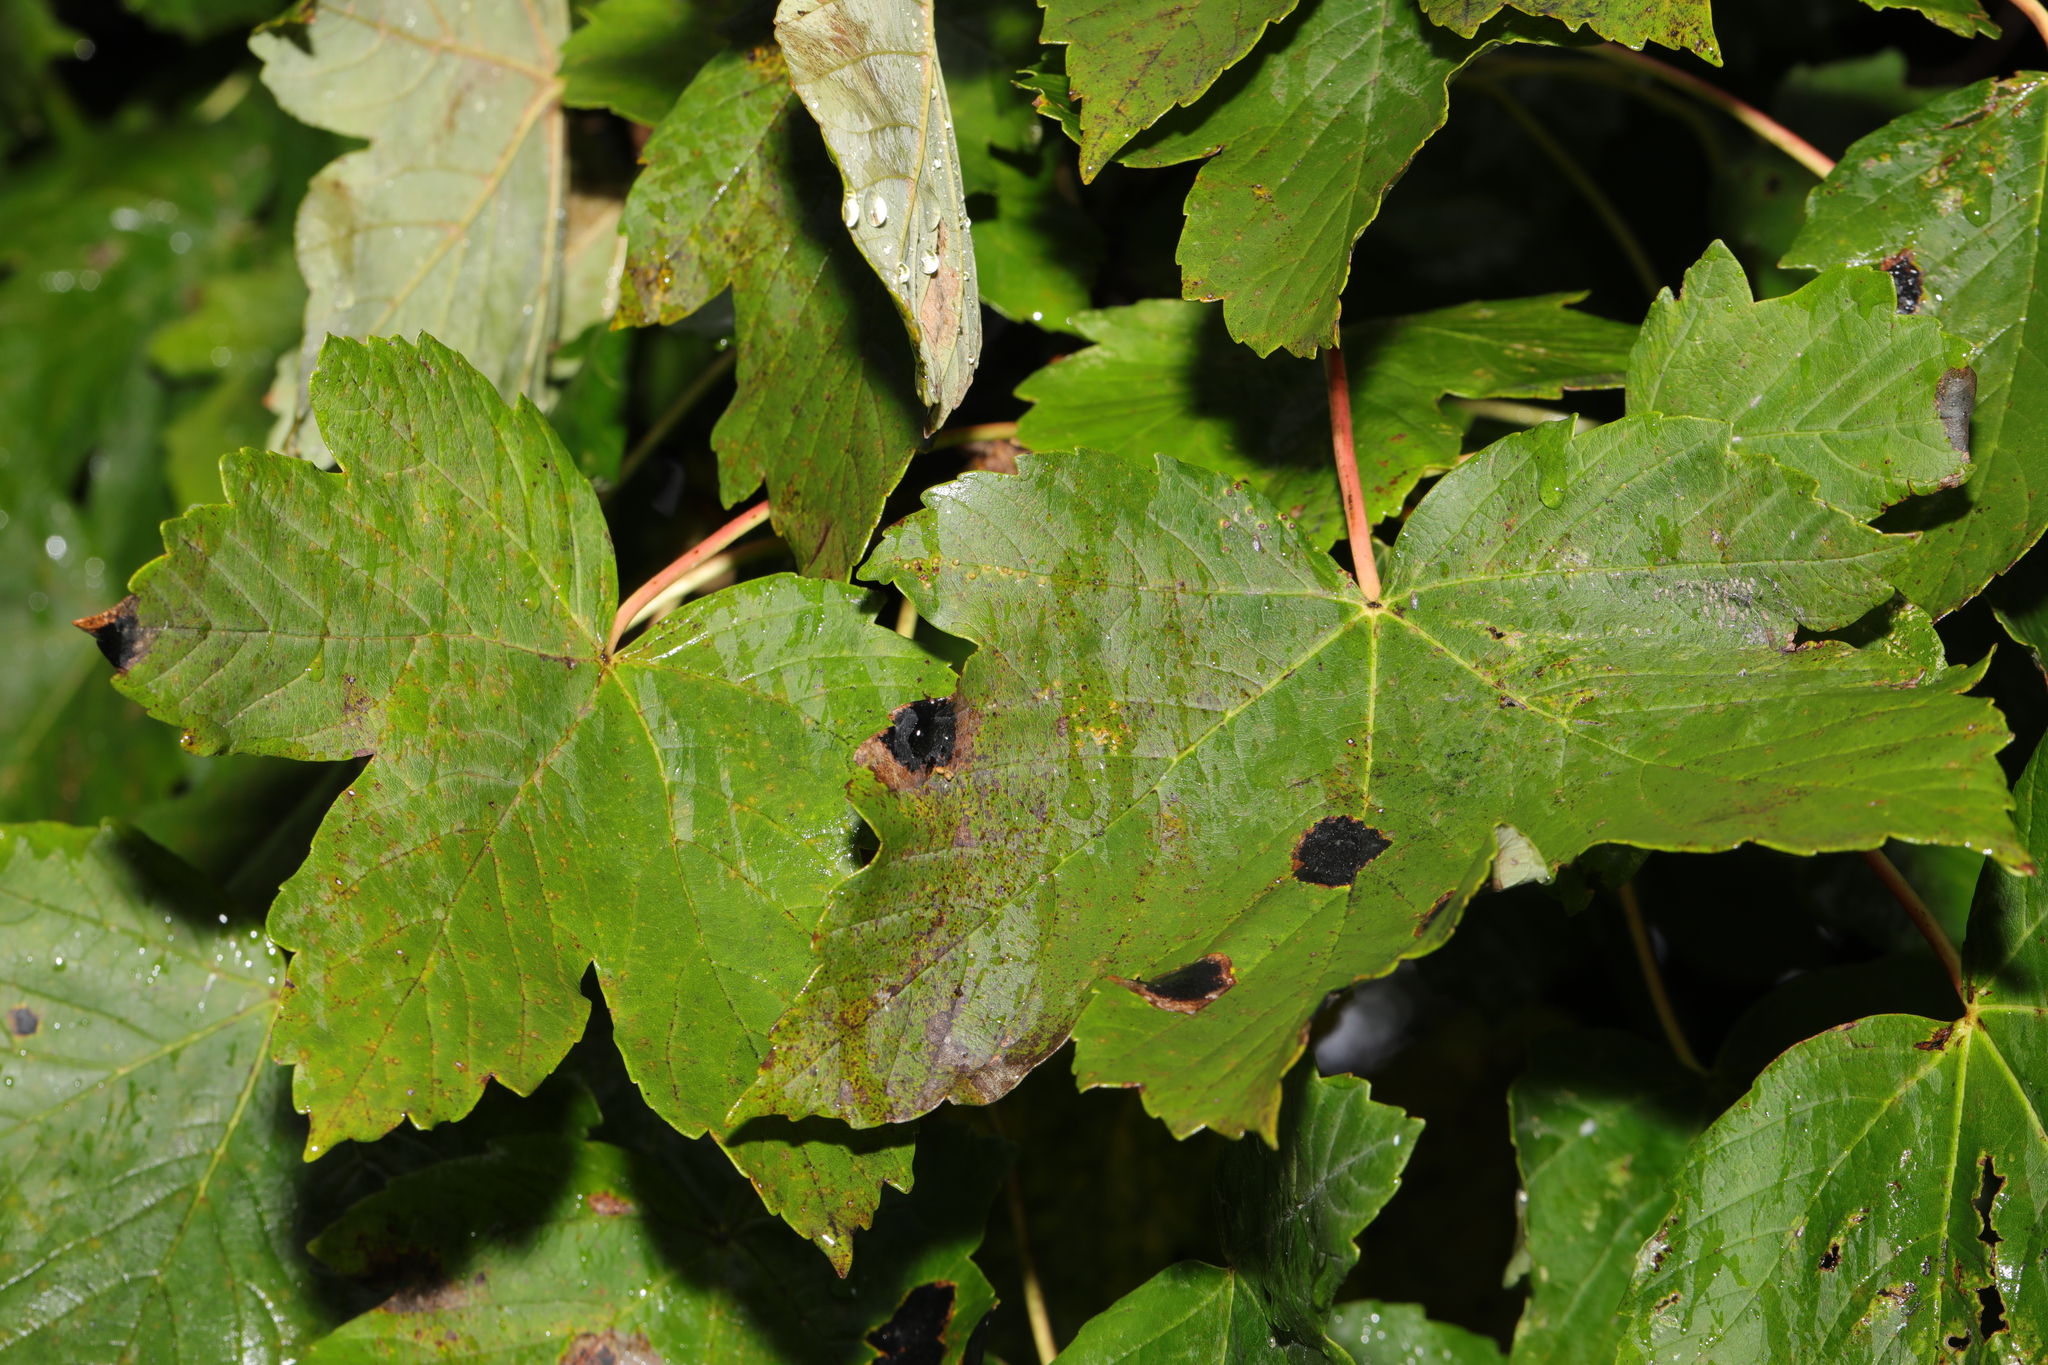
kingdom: Plantae
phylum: Tracheophyta
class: Magnoliopsida
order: Sapindales
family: Sapindaceae
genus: Acer
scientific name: Acer pseudoplatanus
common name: Sycamore
